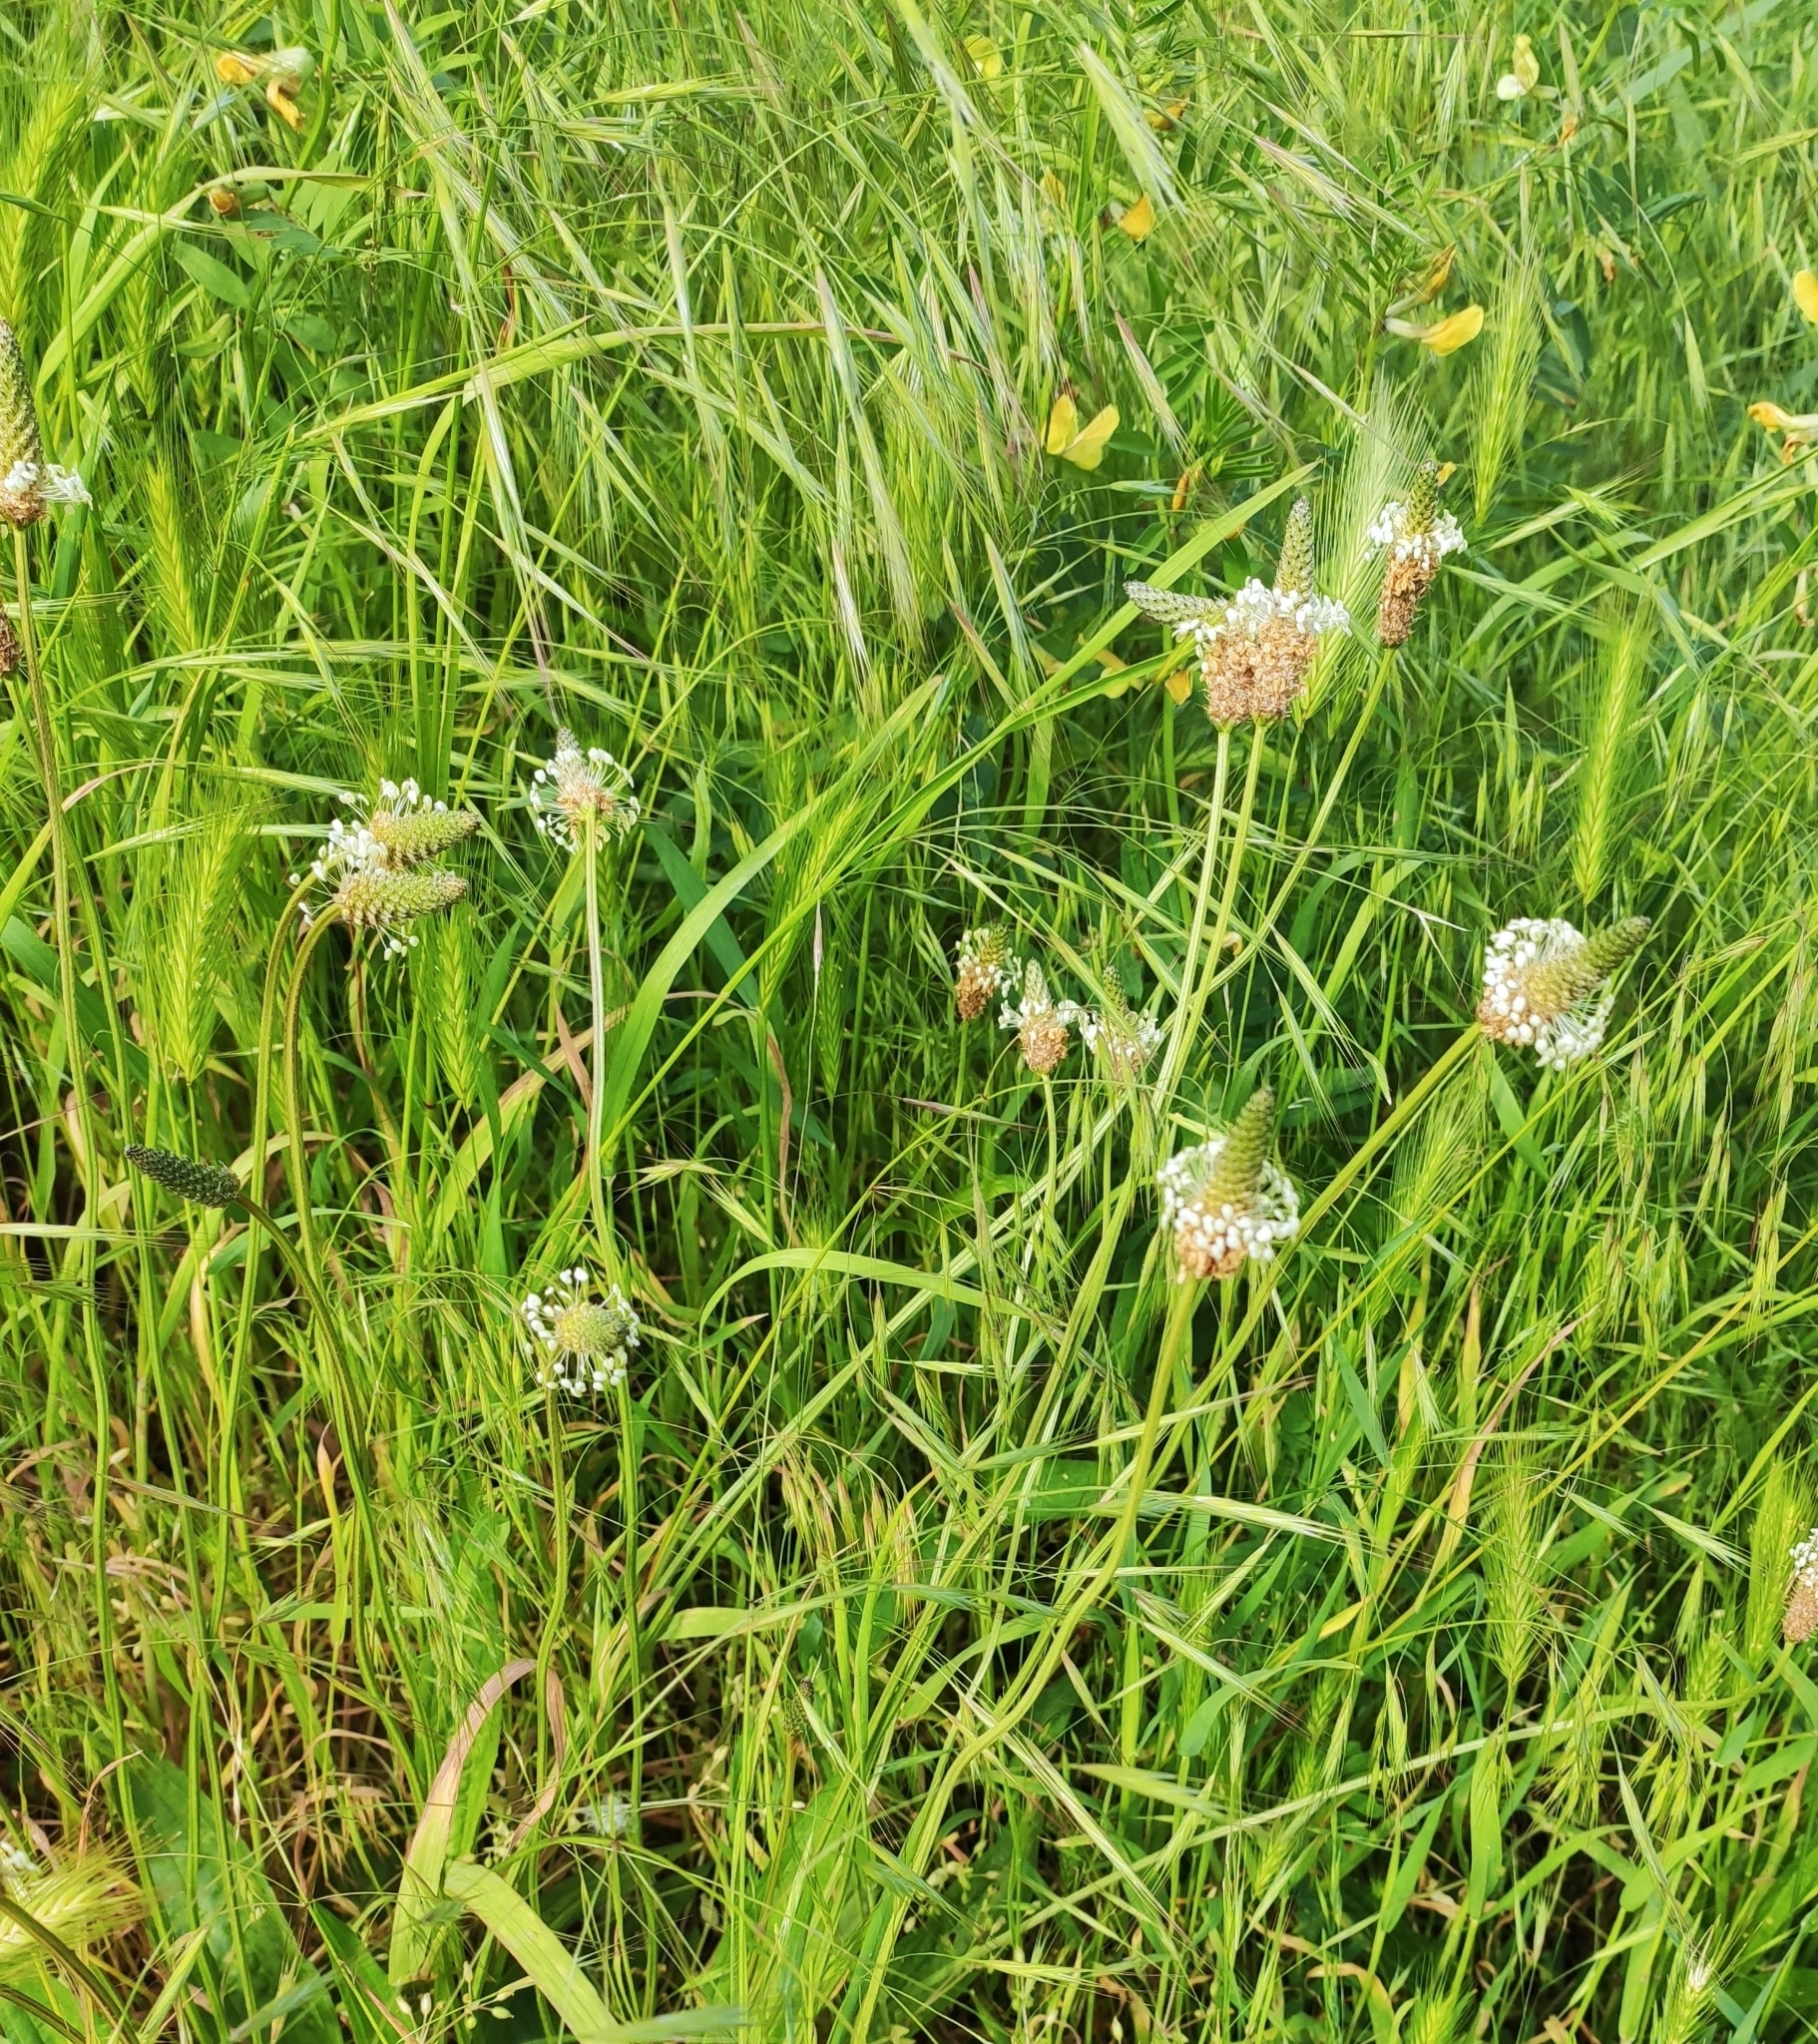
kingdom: Plantae
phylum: Tracheophyta
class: Magnoliopsida
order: Lamiales
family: Plantaginaceae
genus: Plantago
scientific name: Plantago lanceolata
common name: Ribwort plantain
